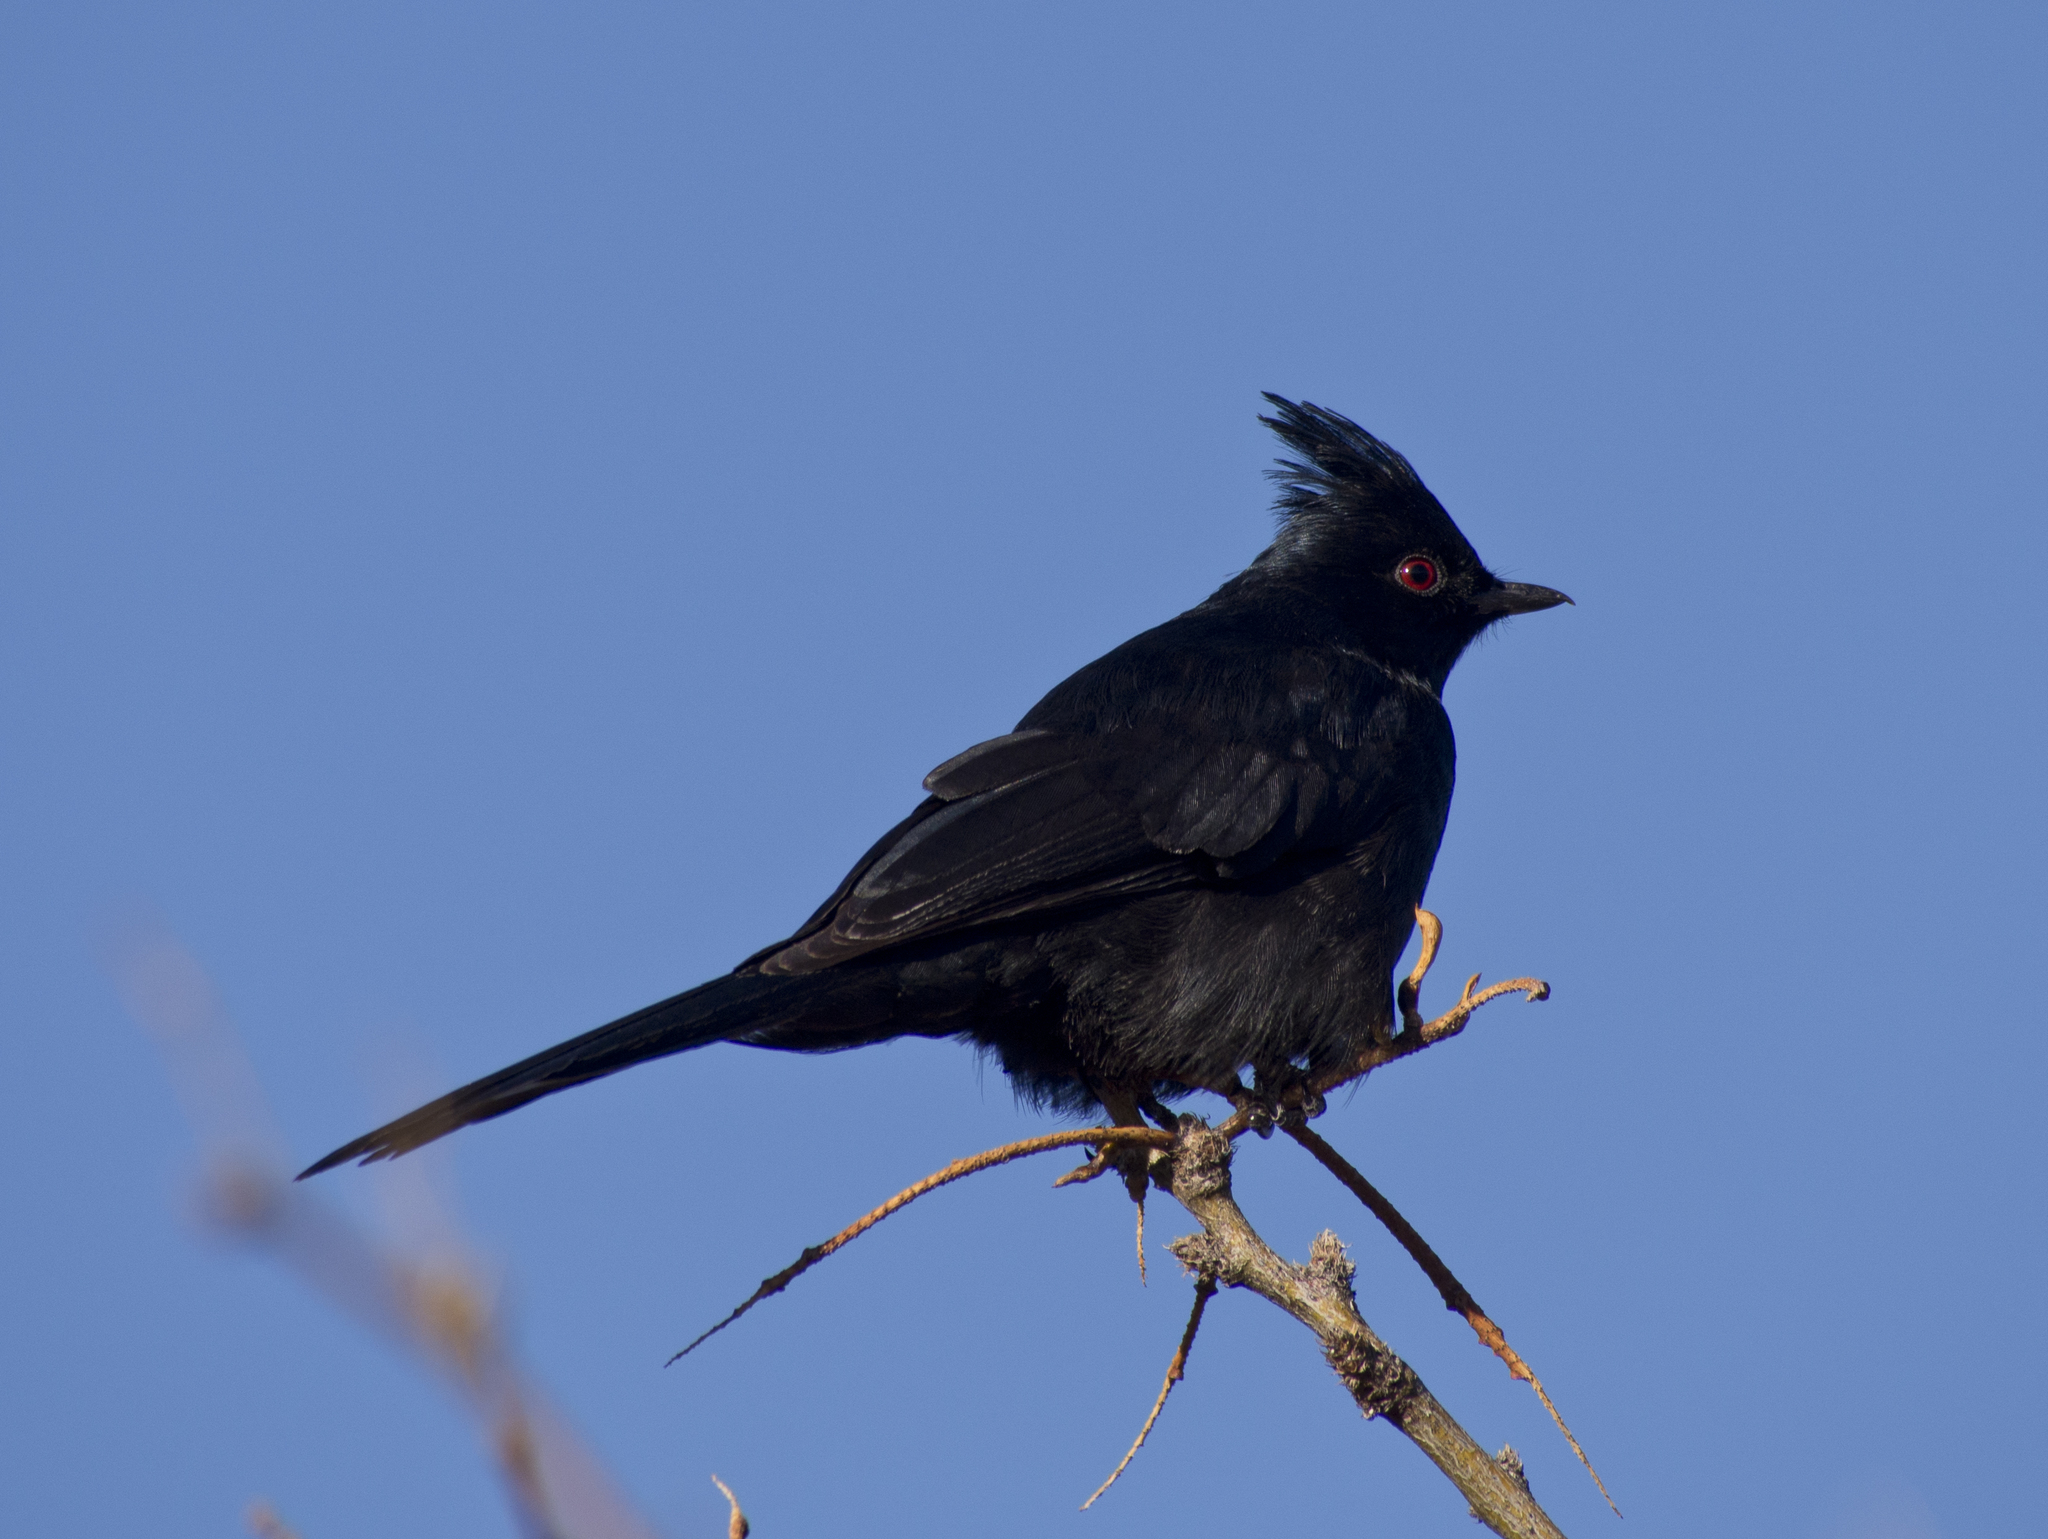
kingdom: Animalia
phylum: Chordata
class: Aves
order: Passeriformes
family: Ptilogonatidae
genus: Phainopepla
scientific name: Phainopepla nitens
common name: Phainopepla
